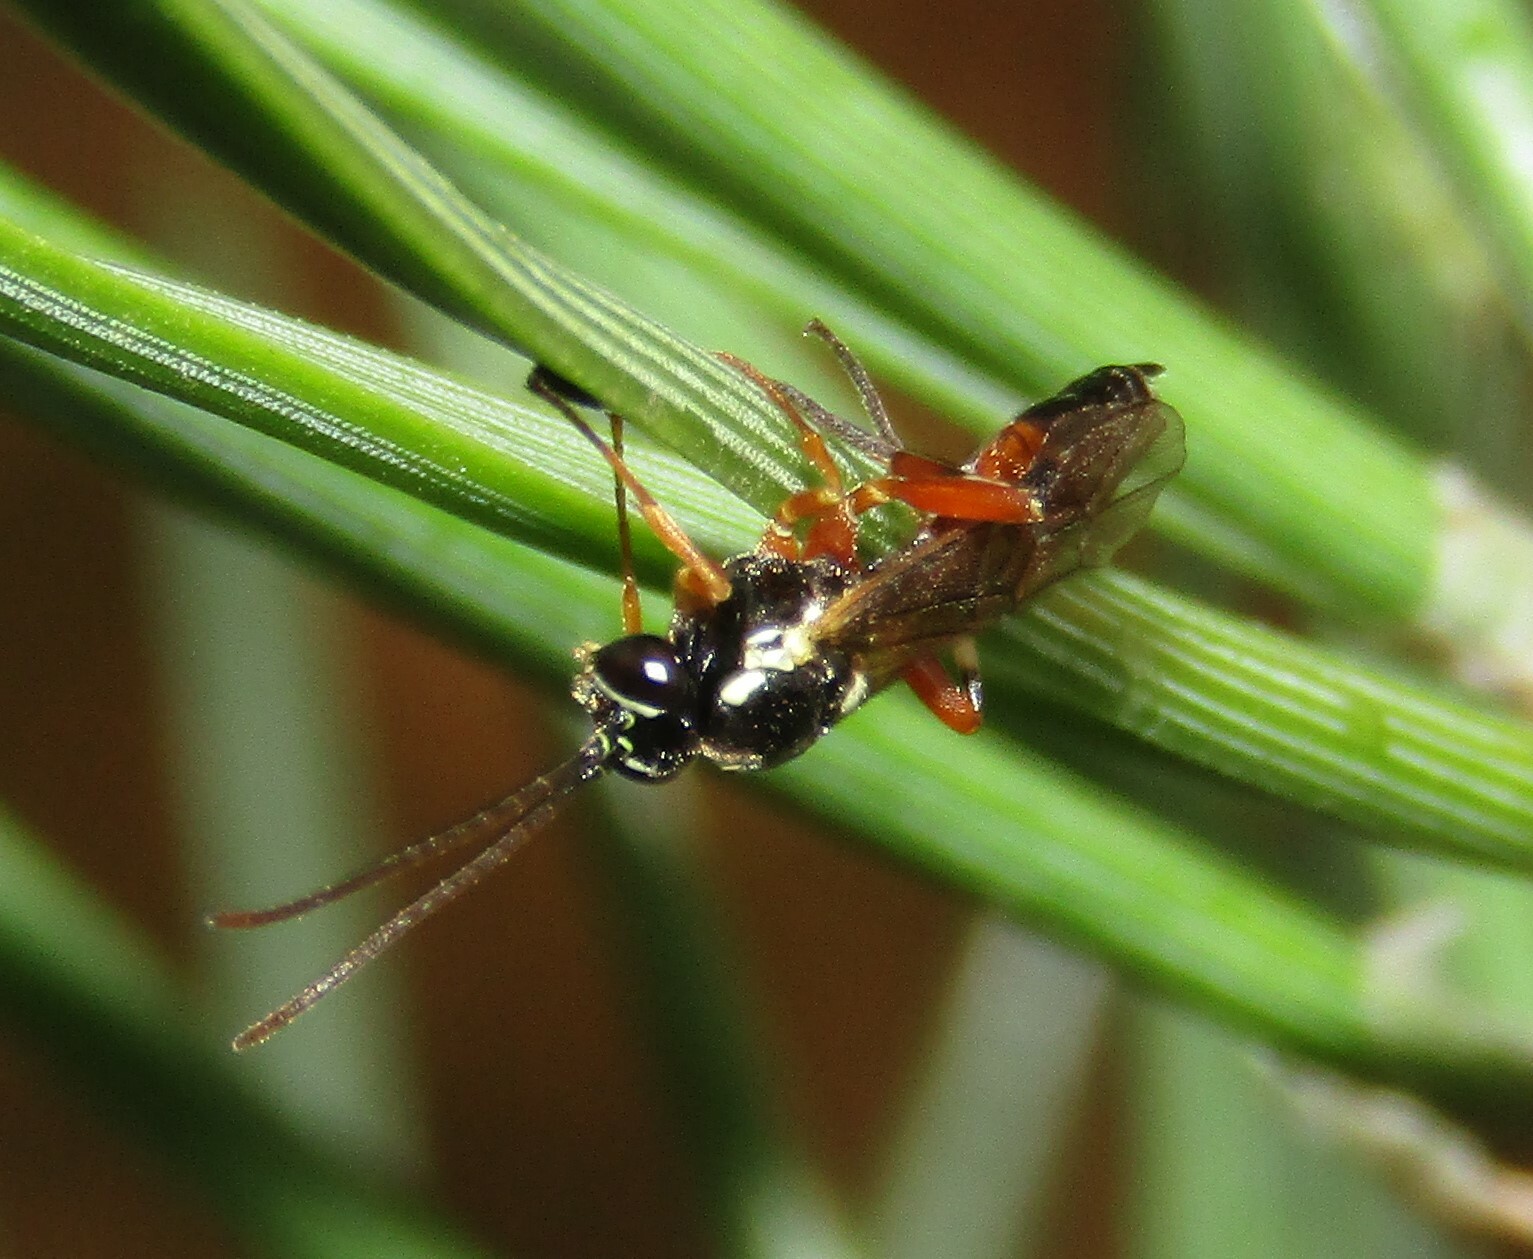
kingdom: Animalia
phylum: Arthropoda
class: Insecta
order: Hymenoptera
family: Ichneumonidae
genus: Diplazon
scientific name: Diplazon laetatorius
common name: Parasitoid wasp
